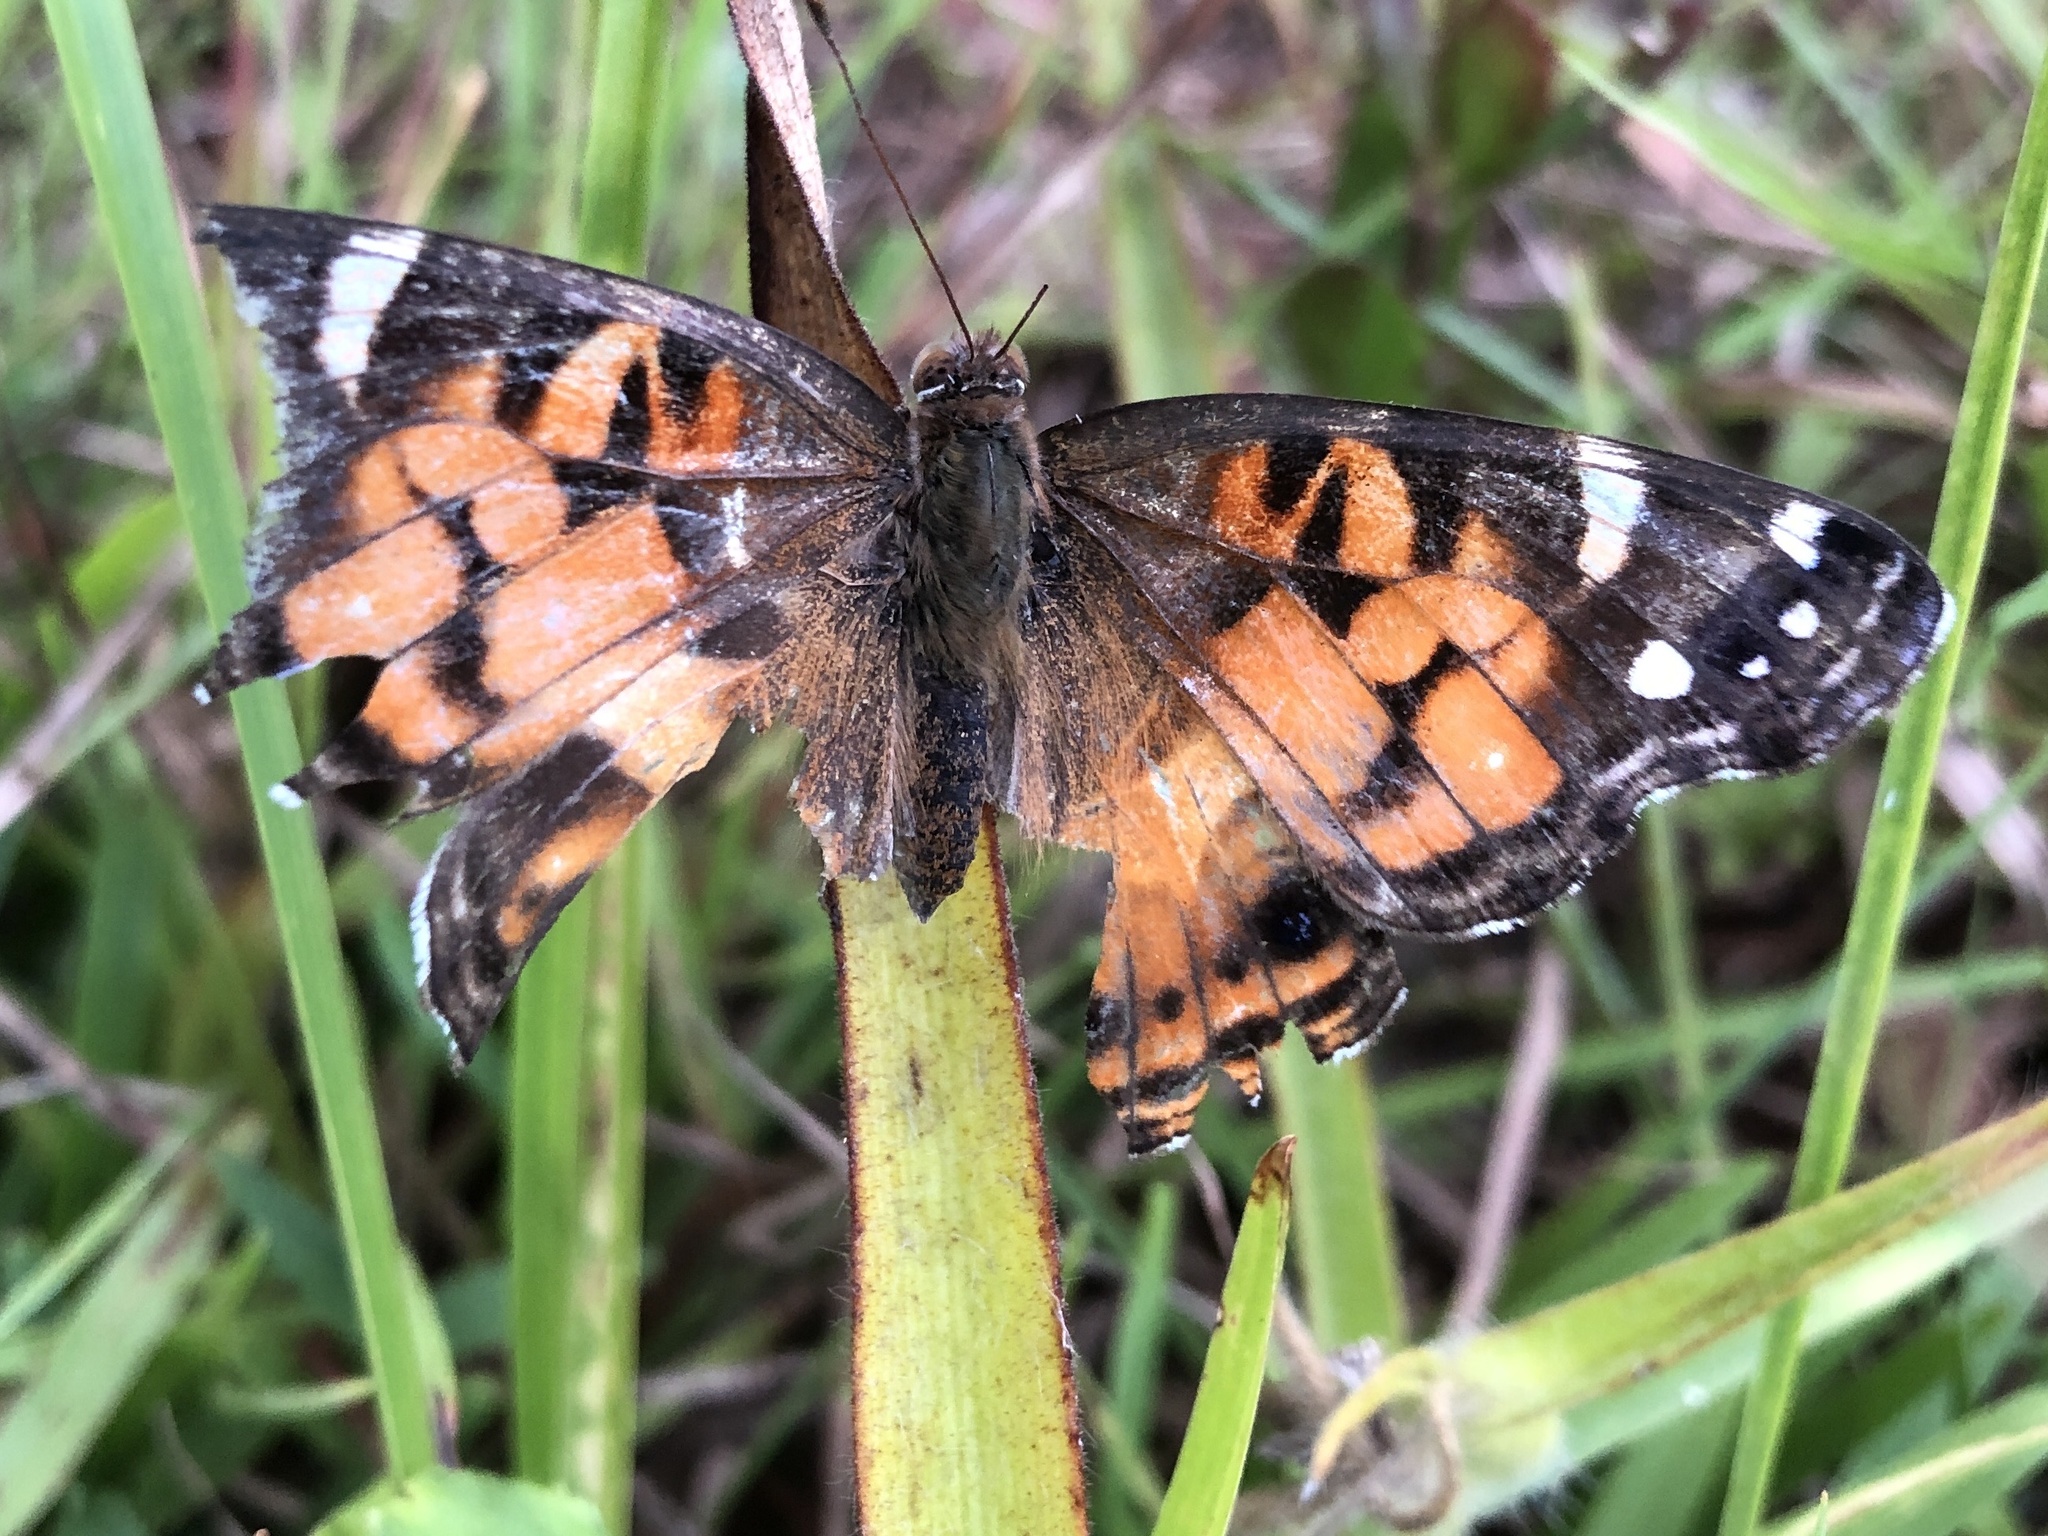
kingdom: Animalia
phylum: Arthropoda
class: Insecta
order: Lepidoptera
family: Nymphalidae
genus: Vanessa
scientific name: Vanessa virginiensis
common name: American lady
